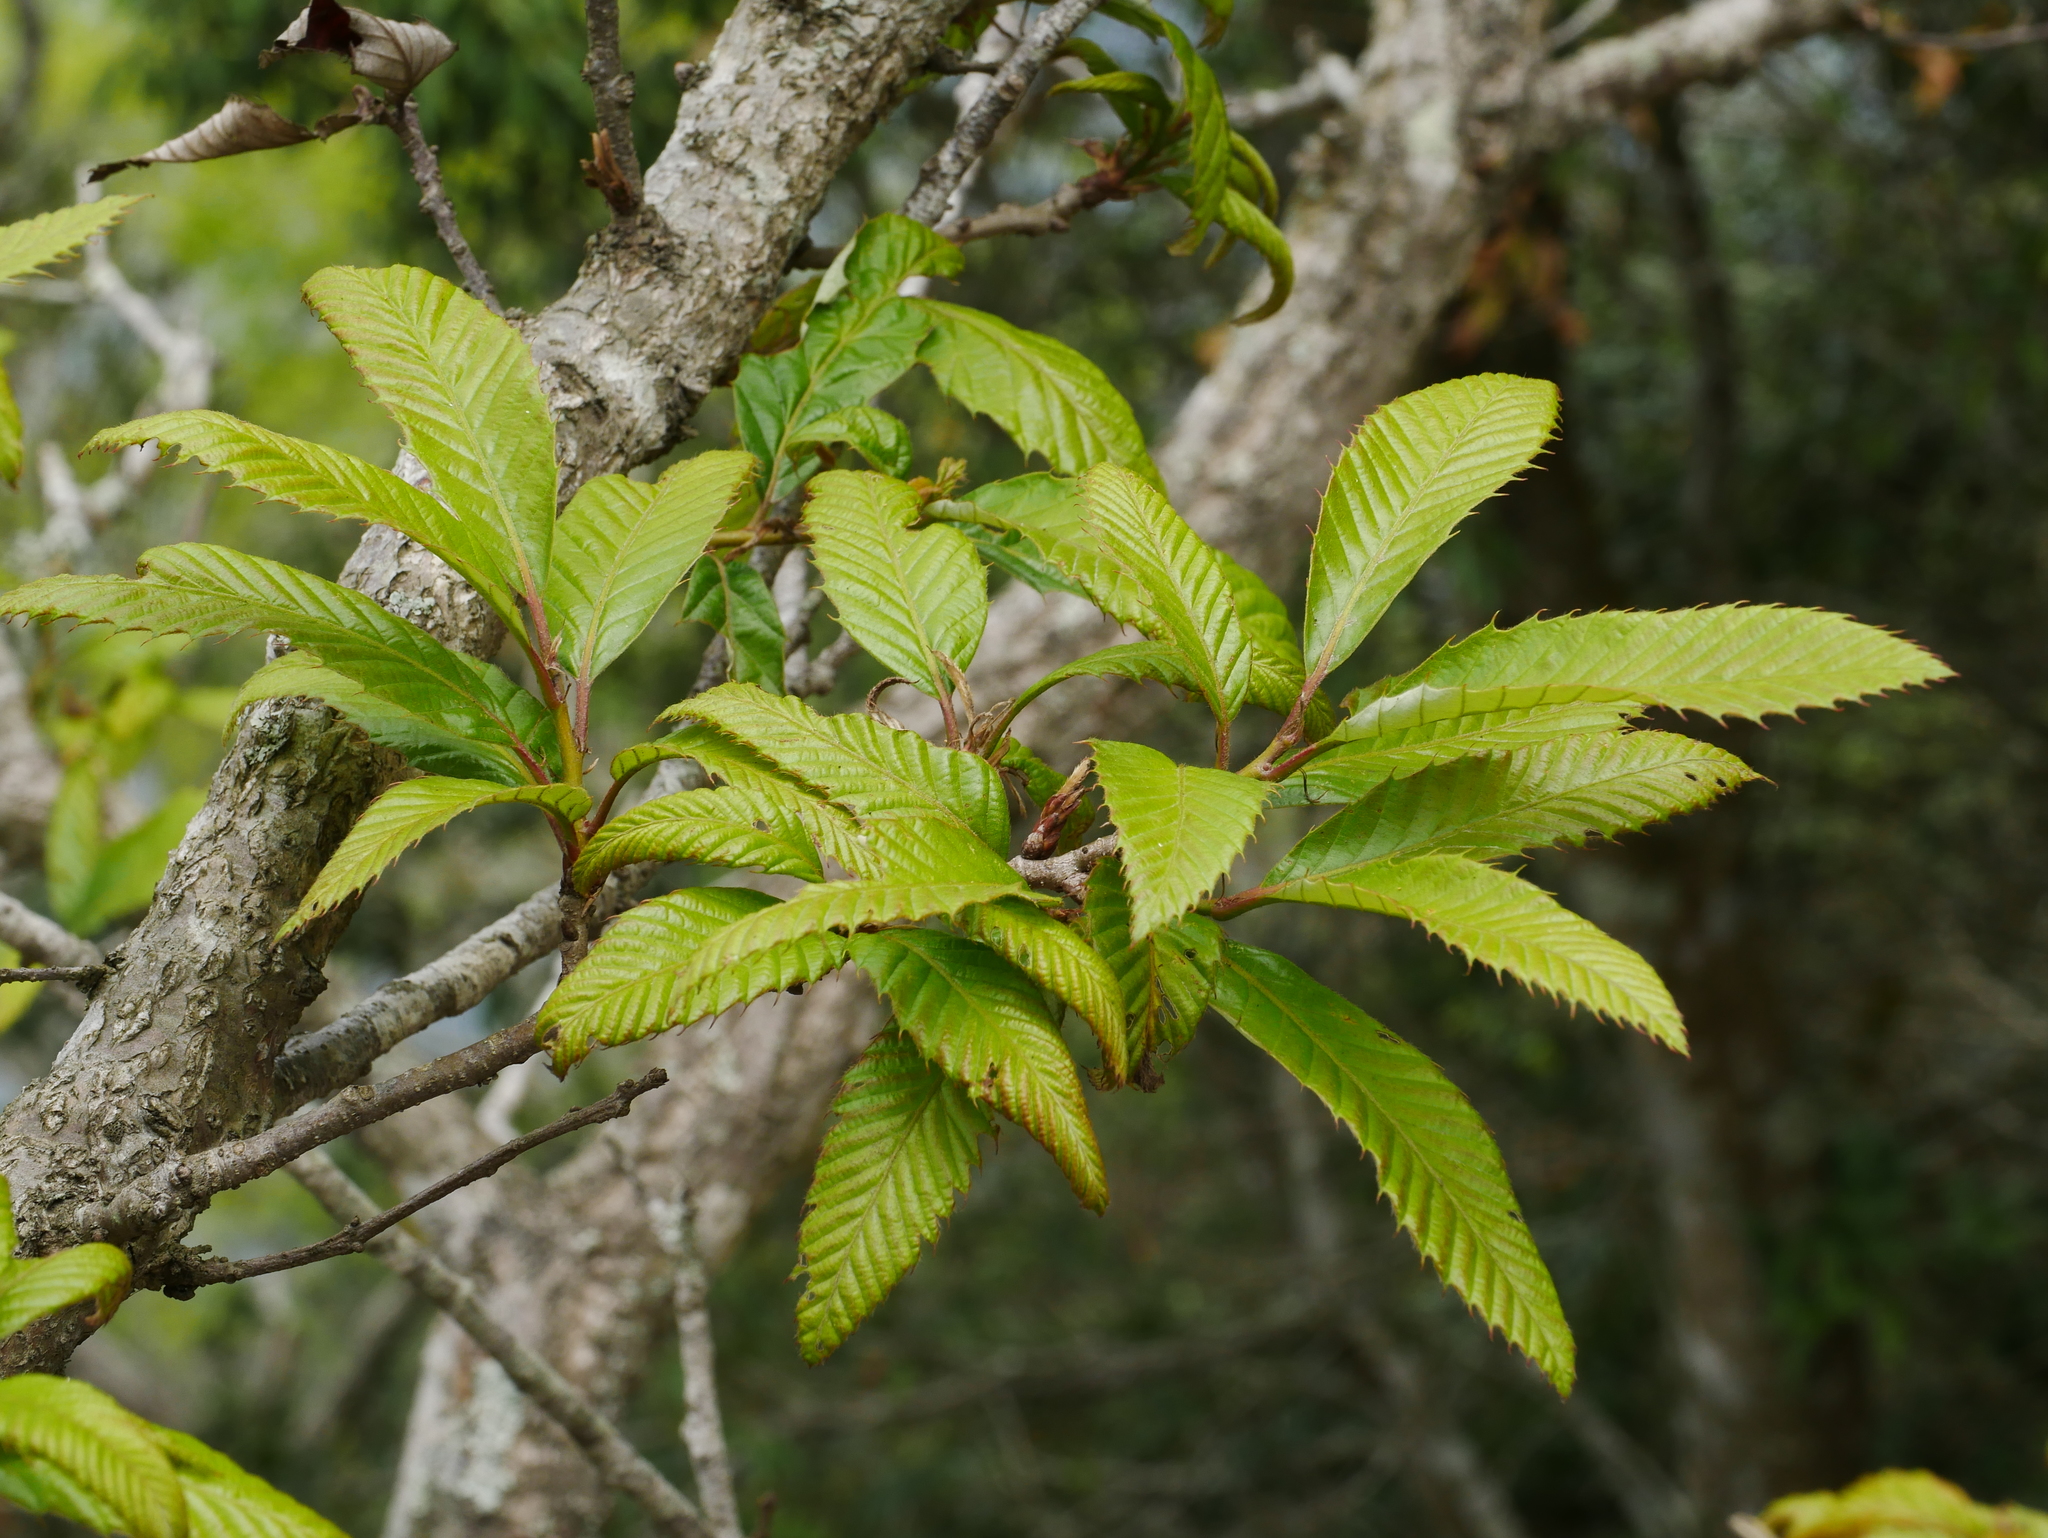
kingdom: Plantae
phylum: Tracheophyta
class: Magnoliopsida
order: Fagales
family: Fagaceae
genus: Quercus
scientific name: Quercus variabilis
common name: Chinese cork oak
